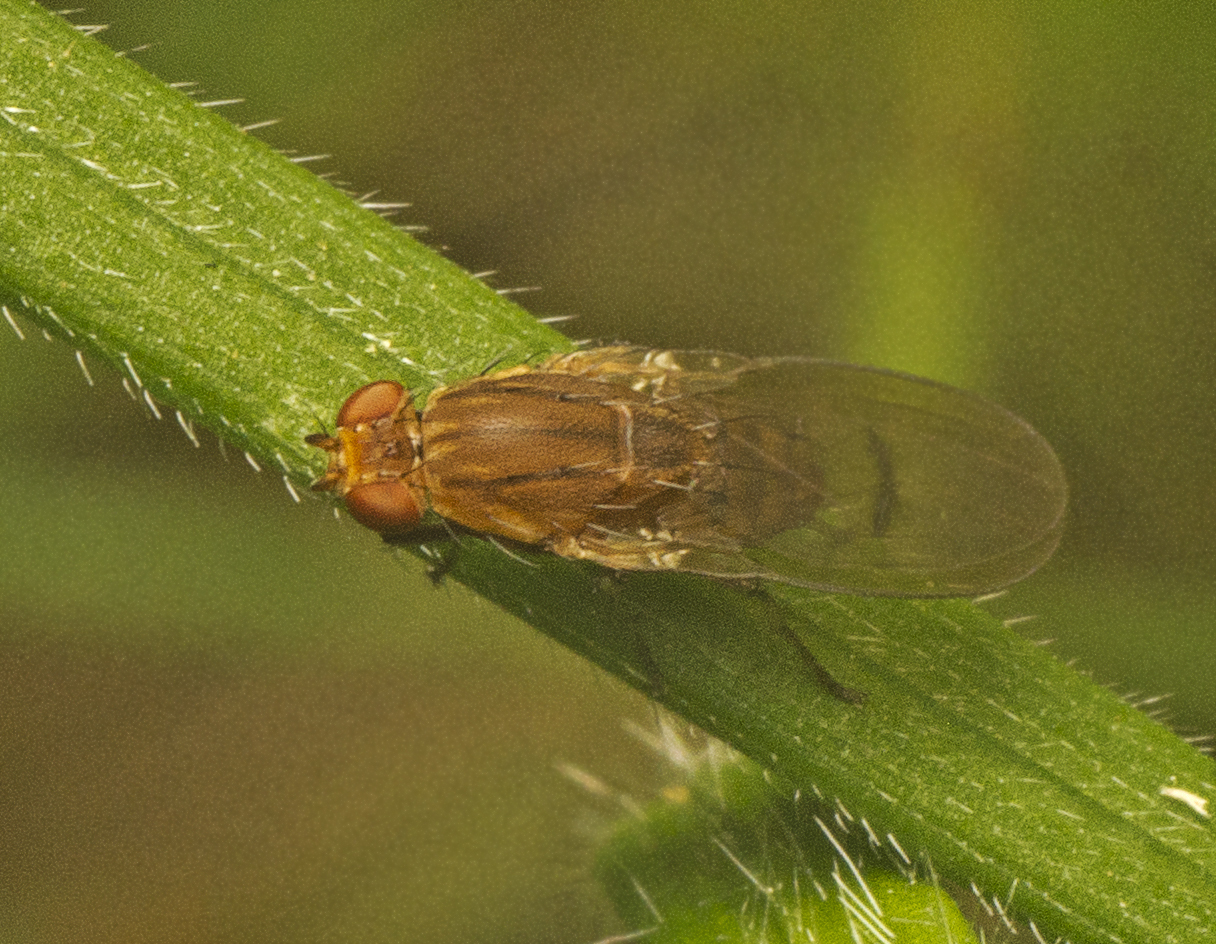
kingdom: Animalia
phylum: Arthropoda
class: Insecta
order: Diptera
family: Heleomyzidae
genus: Austroleria
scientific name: Austroleria truncata
